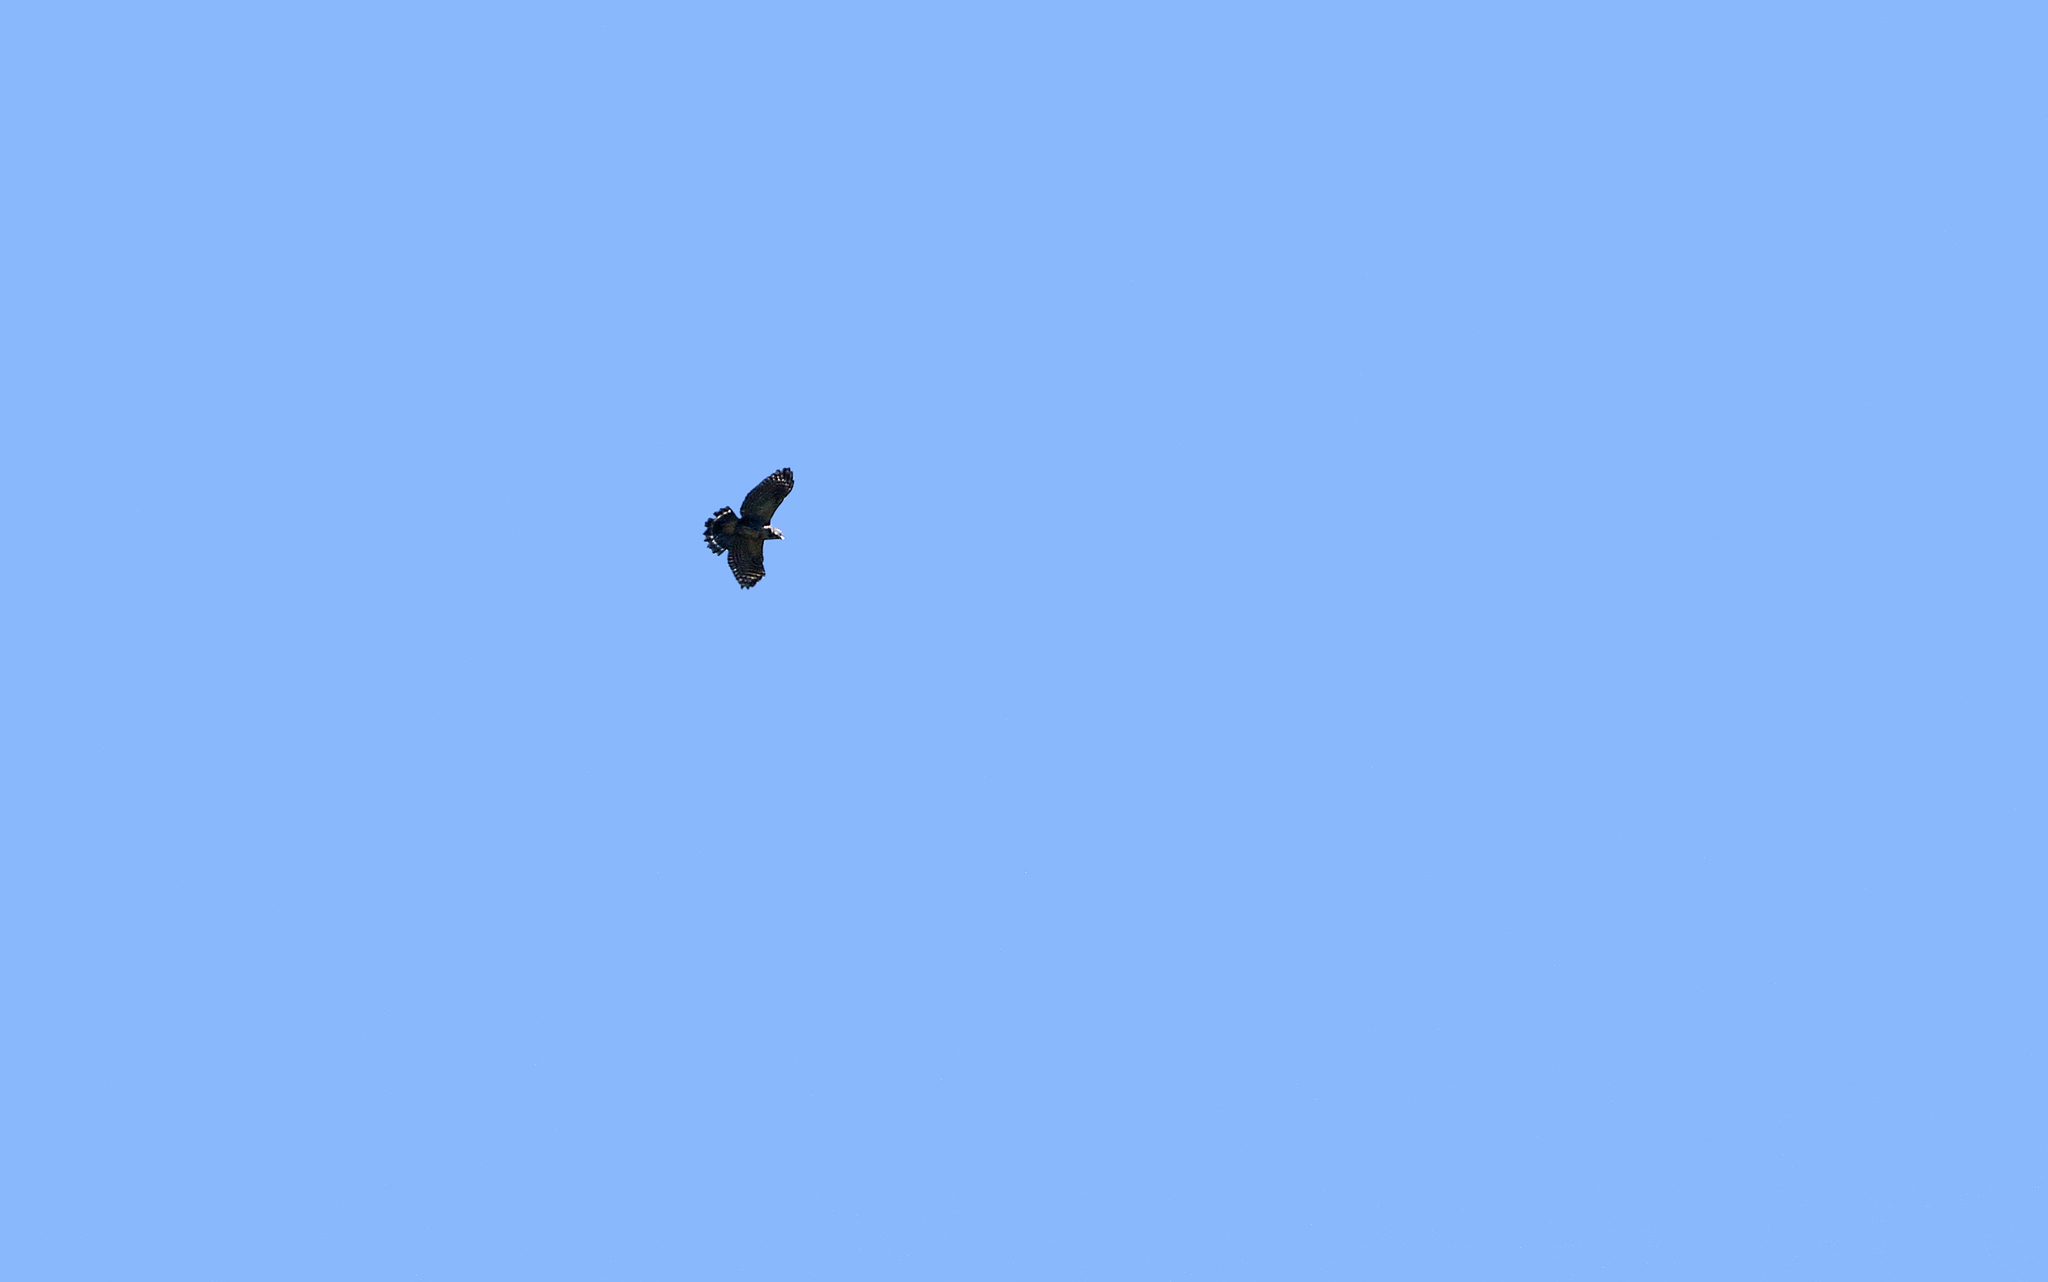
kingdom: Animalia
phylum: Chordata
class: Aves
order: Accipitriformes
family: Accipitridae
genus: Percnohierax
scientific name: Percnohierax leucorrhous
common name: White-rumped hawk
